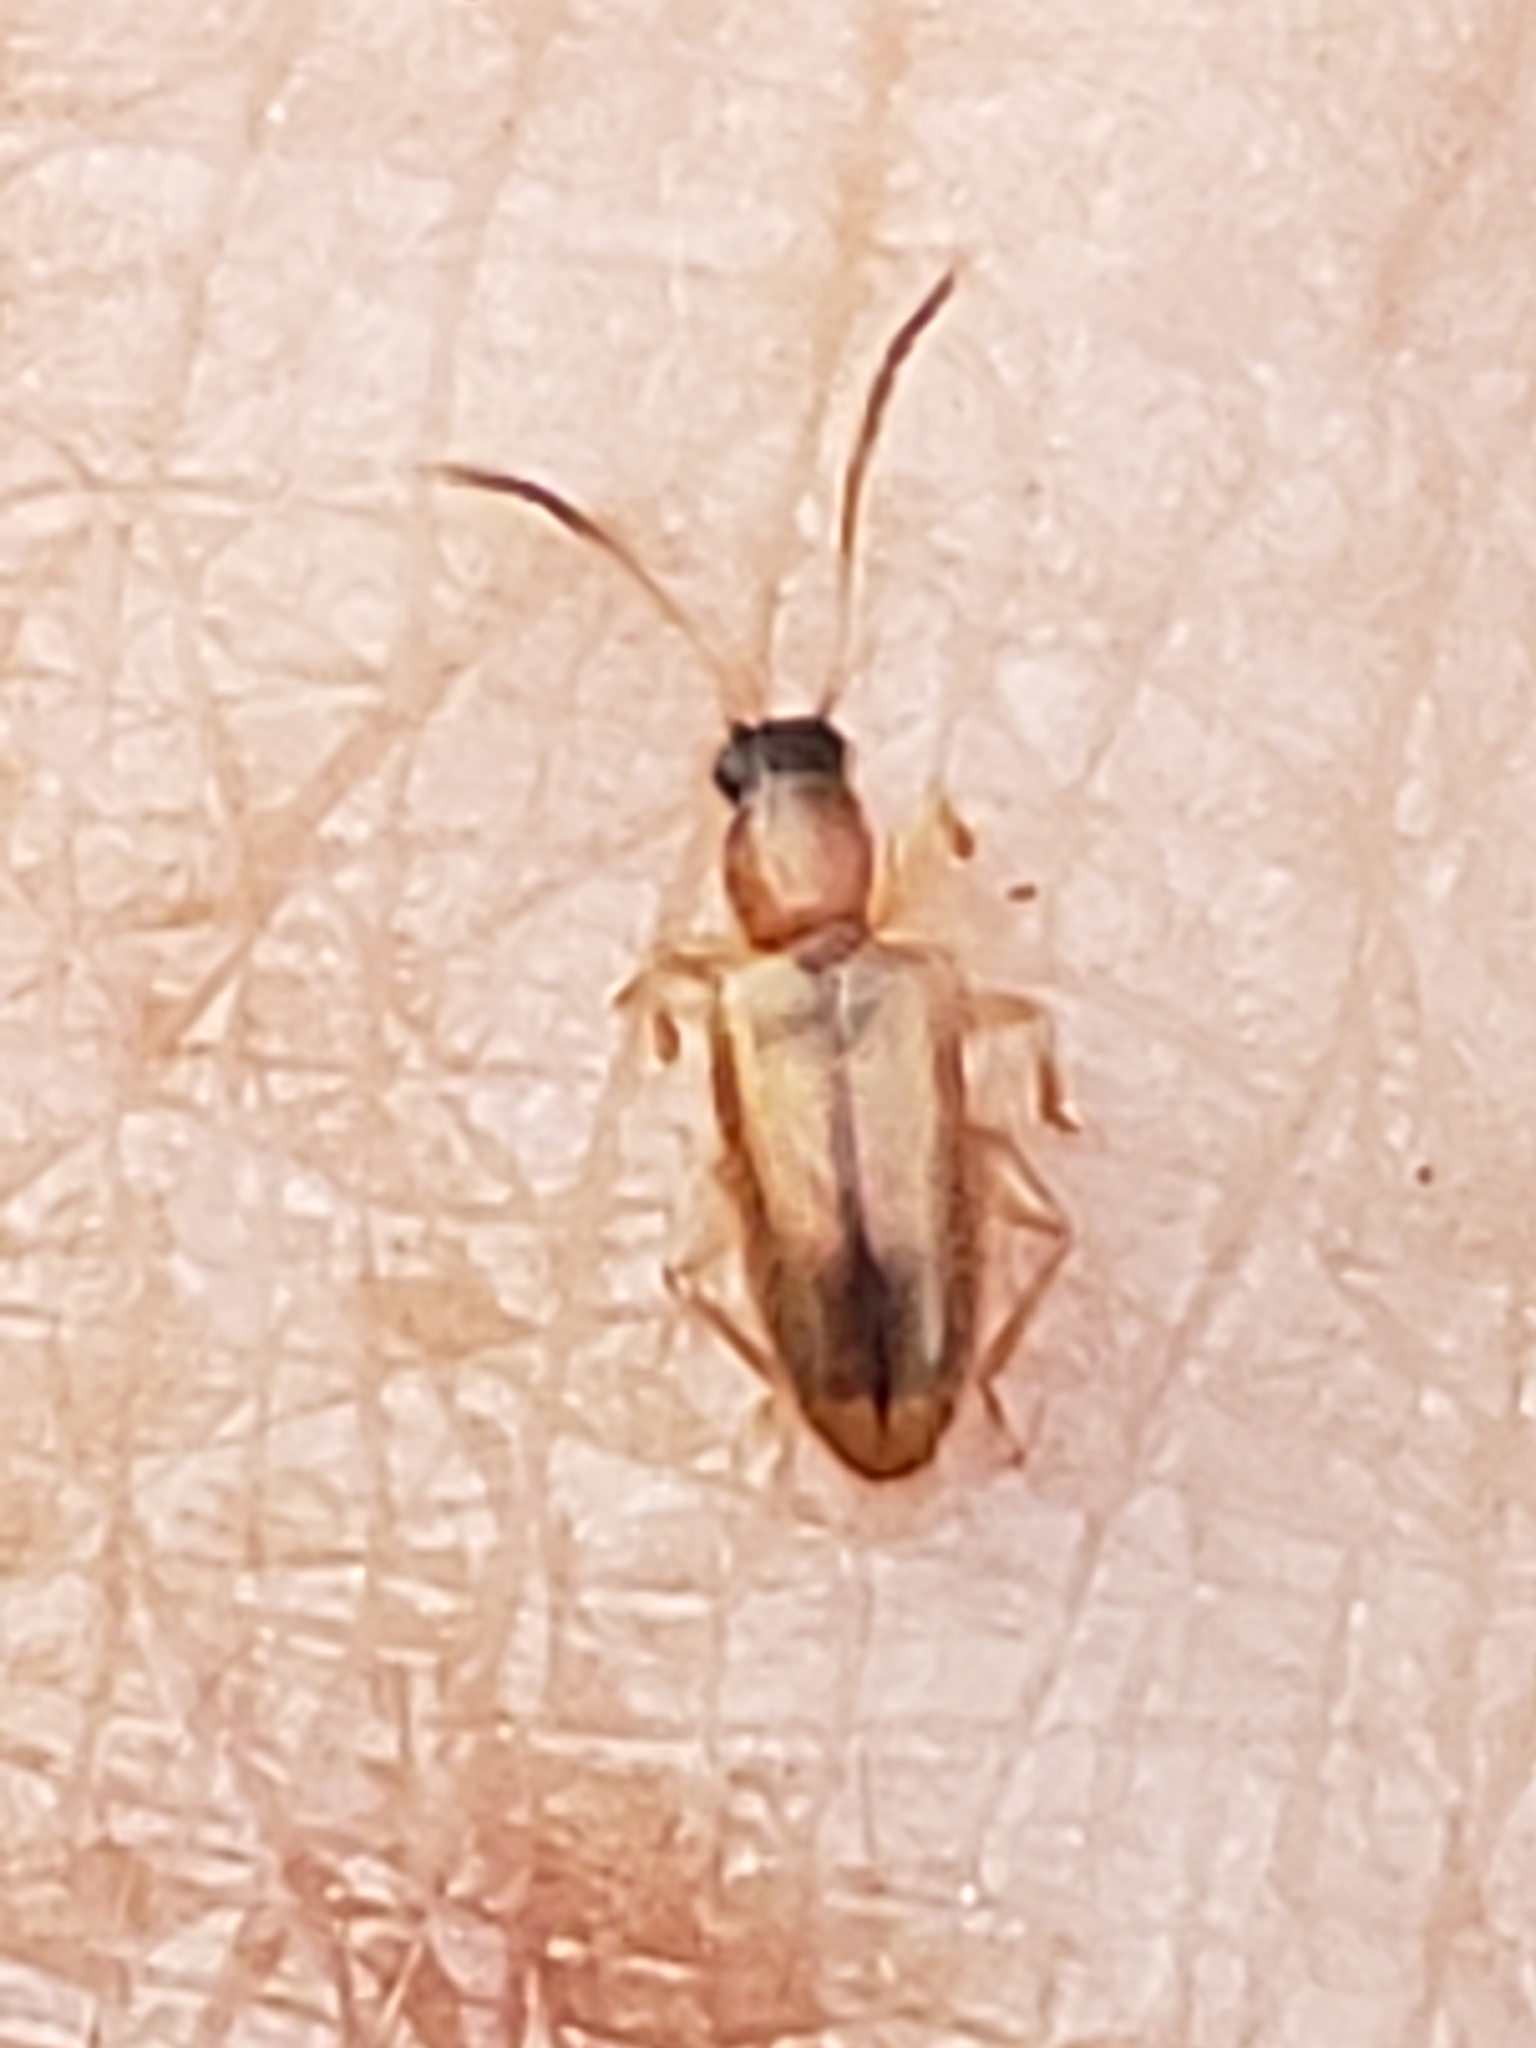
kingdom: Animalia
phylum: Arthropoda
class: Insecta
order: Coleoptera
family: Silvanidae
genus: Telephanus
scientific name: Telephanus velox
